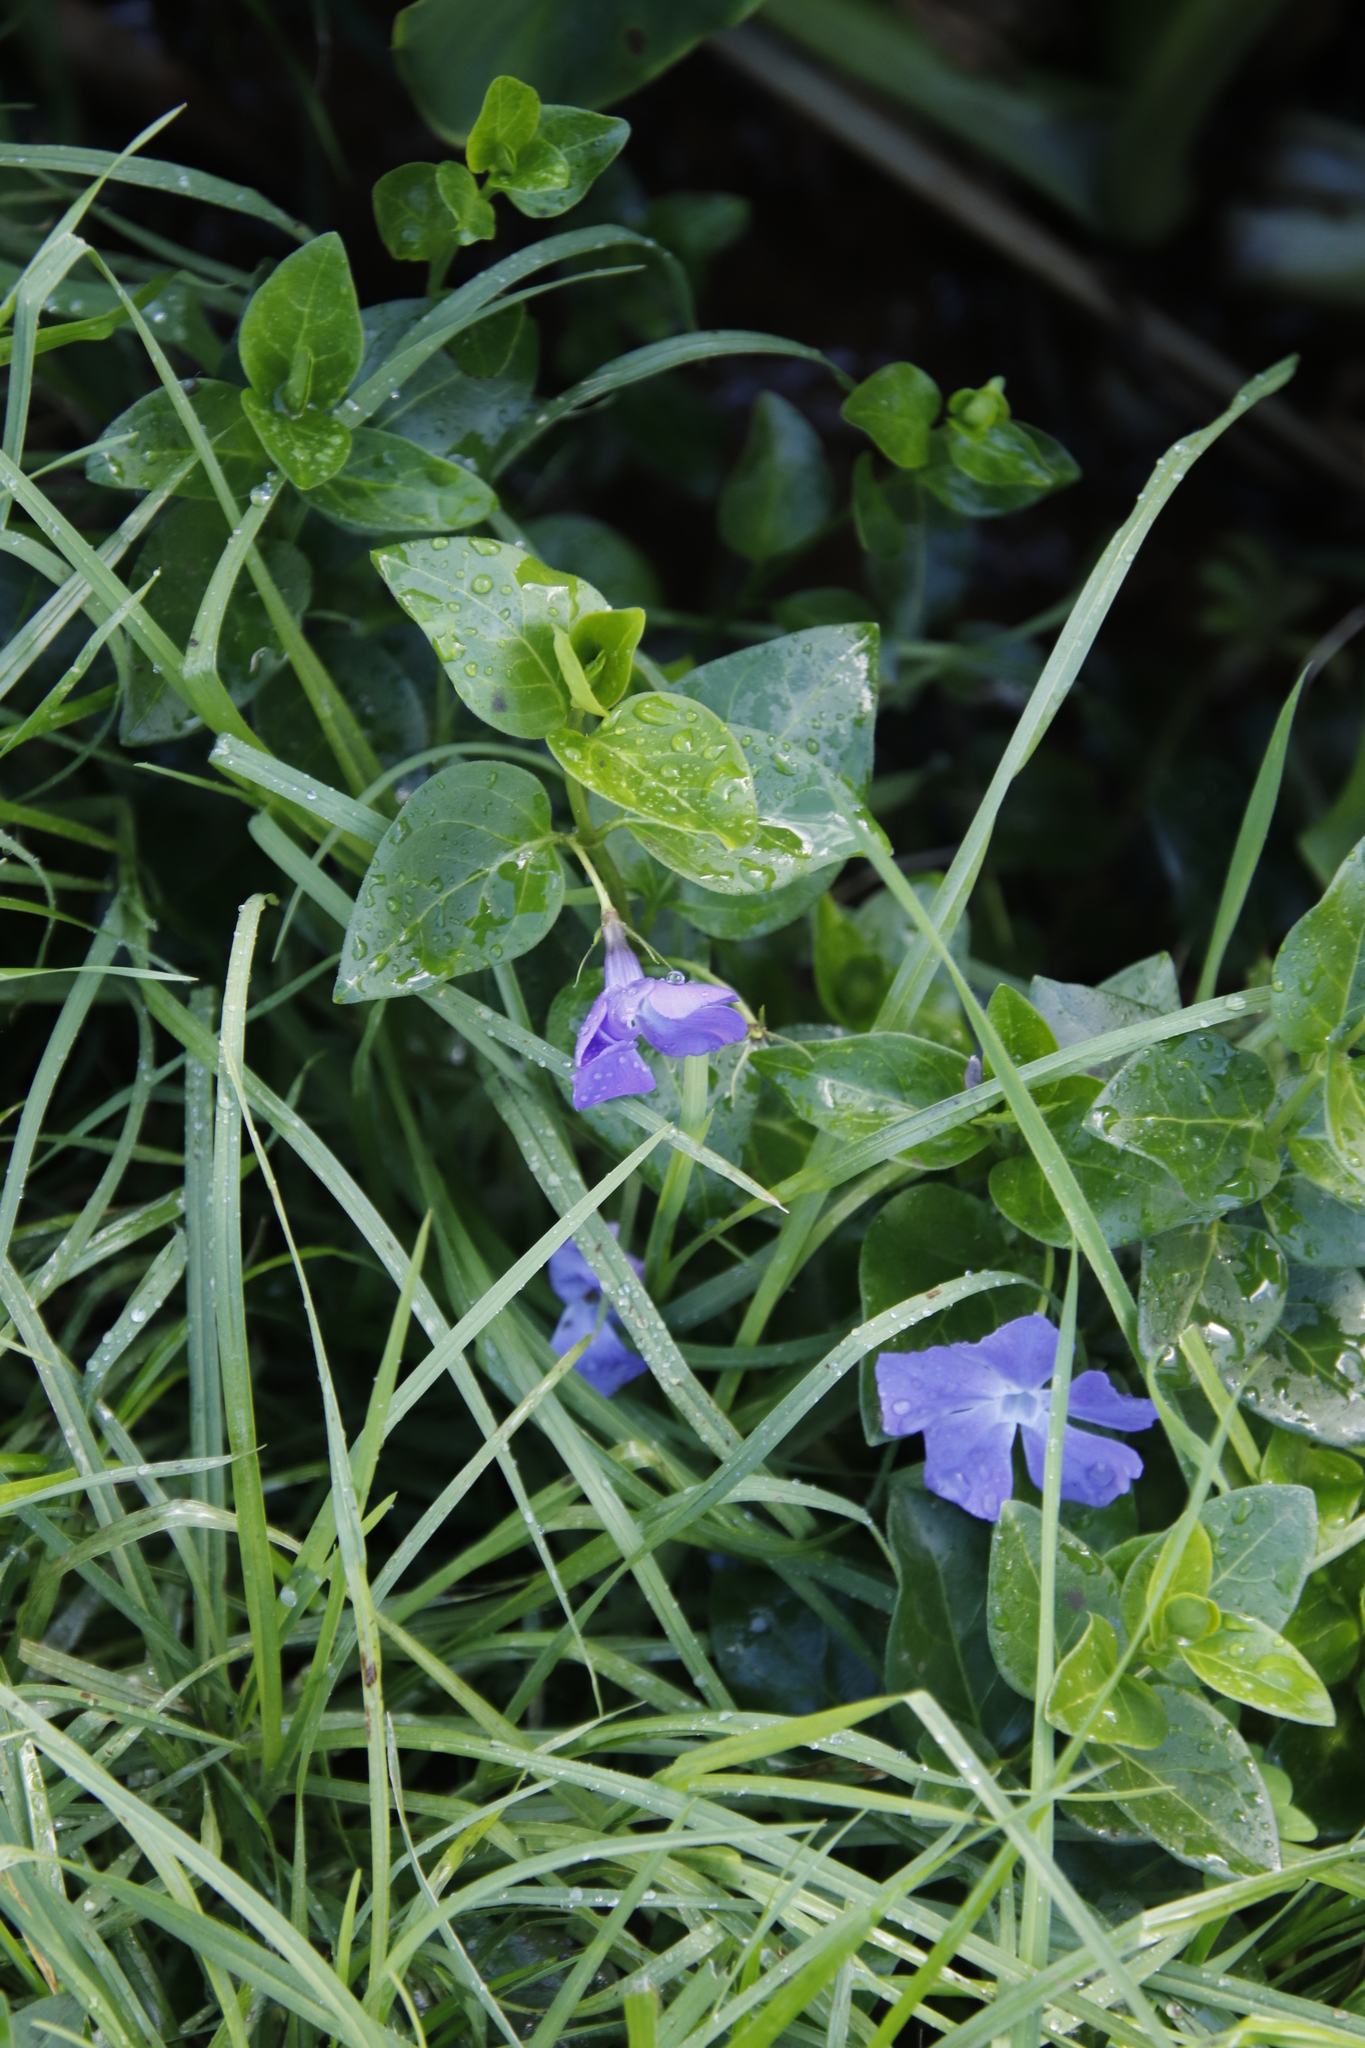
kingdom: Plantae
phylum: Tracheophyta
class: Magnoliopsida
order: Gentianales
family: Apocynaceae
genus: Vinca
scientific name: Vinca major
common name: Greater periwinkle
